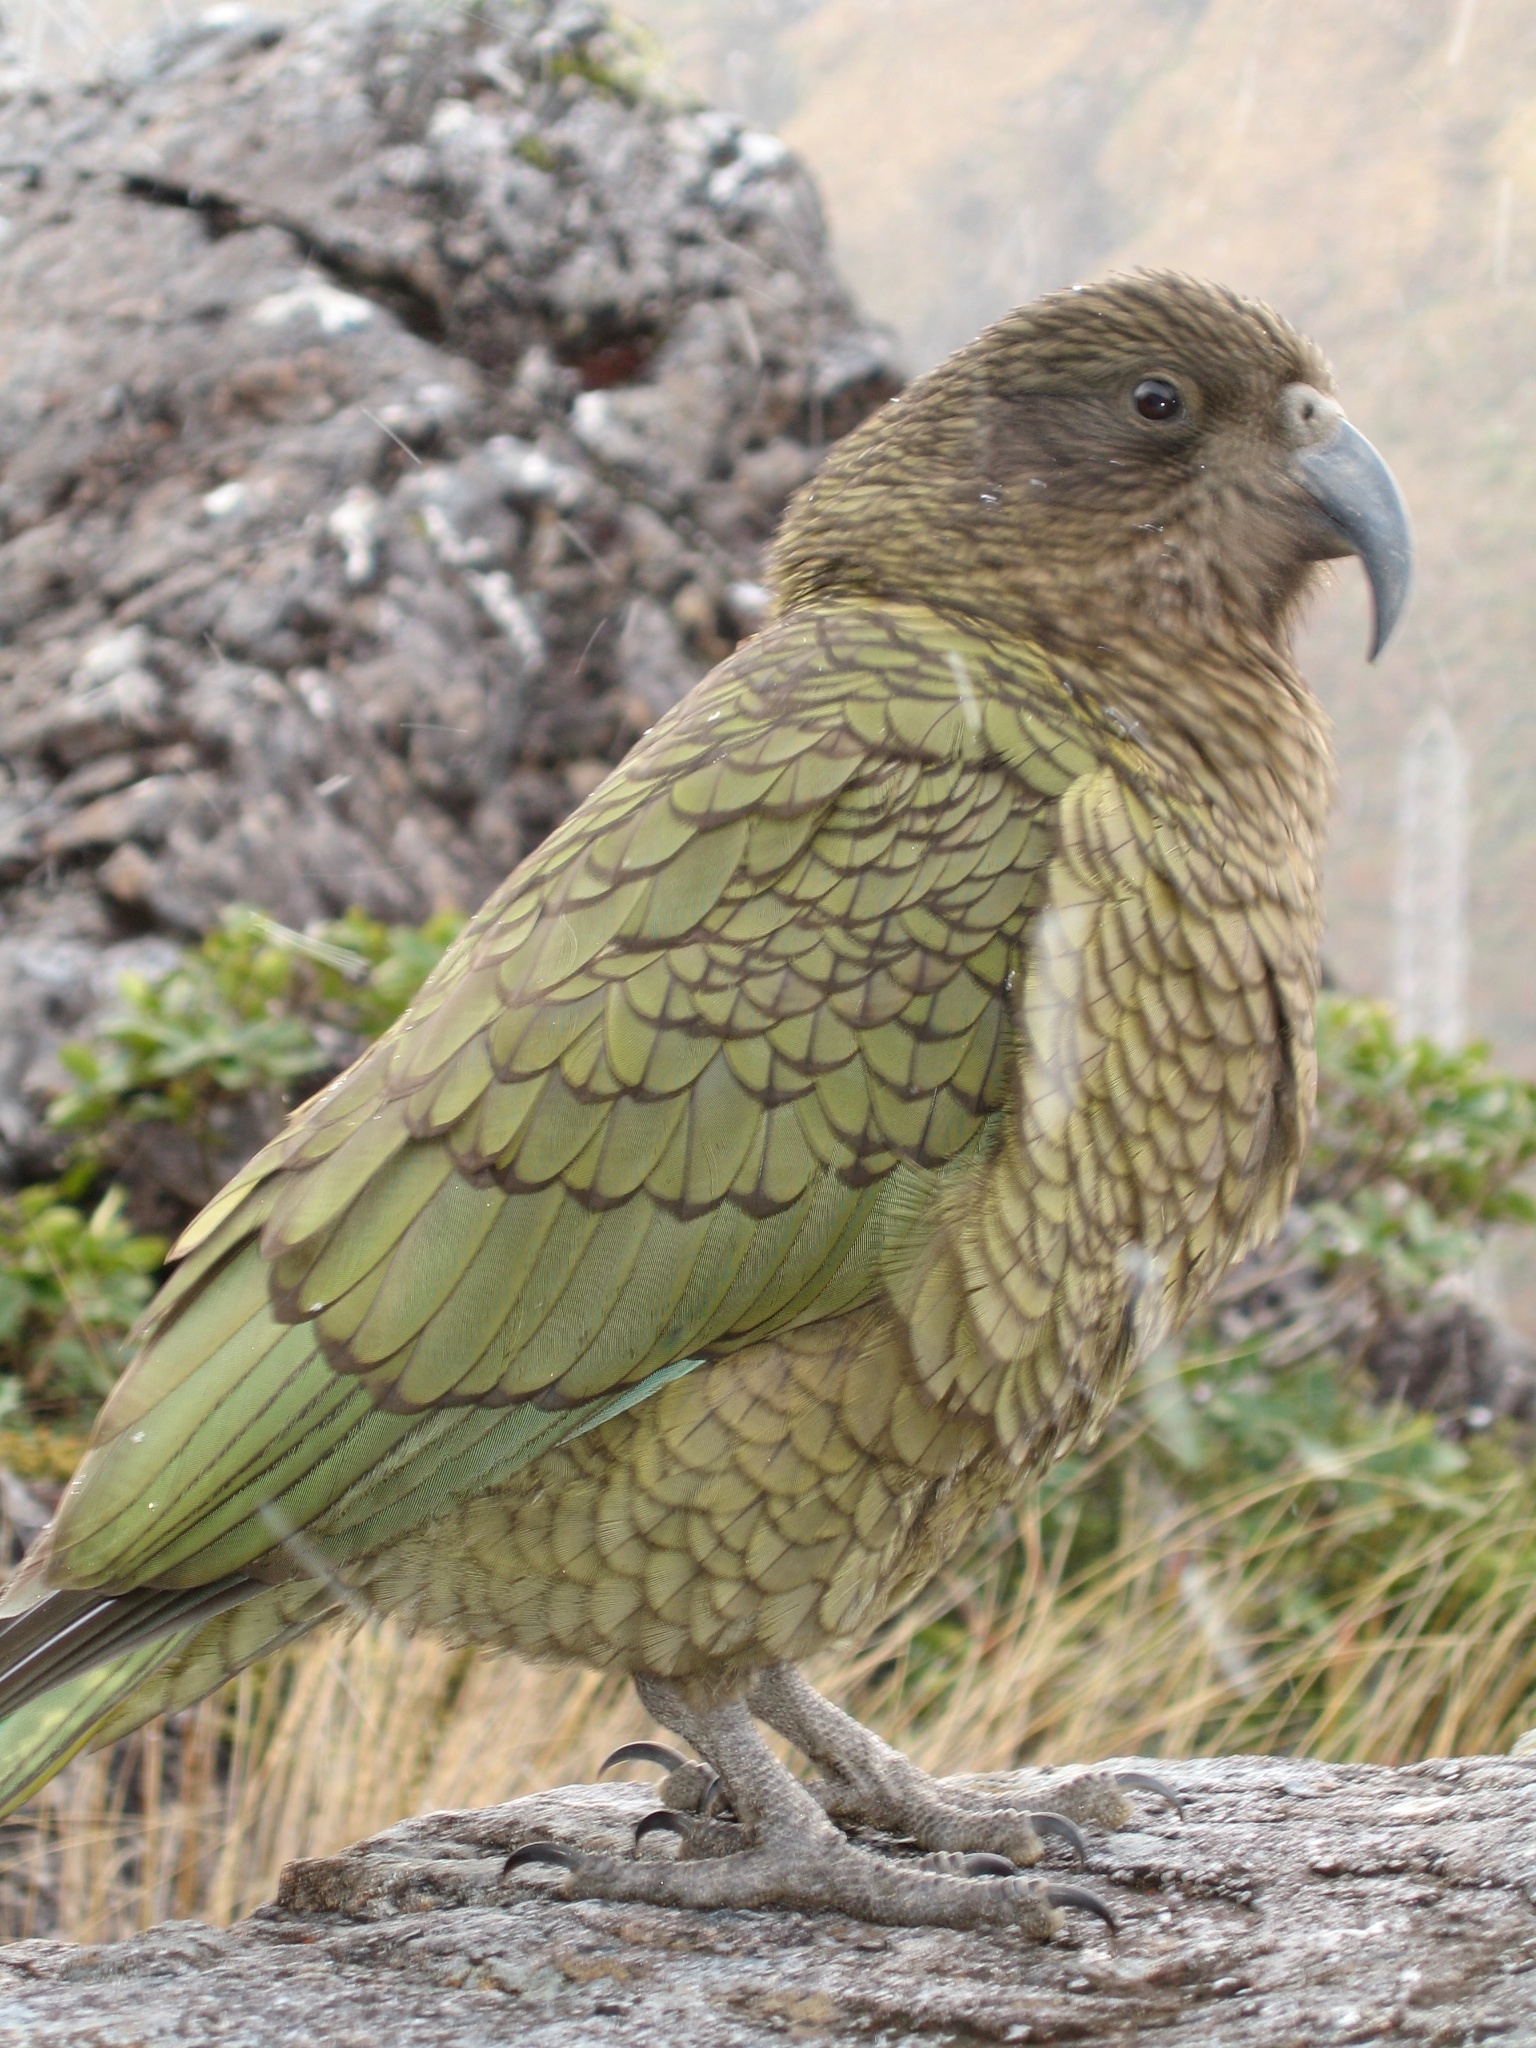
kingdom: Animalia
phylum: Chordata
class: Aves
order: Psittaciformes
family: Psittacidae
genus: Nestor
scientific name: Nestor notabilis
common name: Kea
